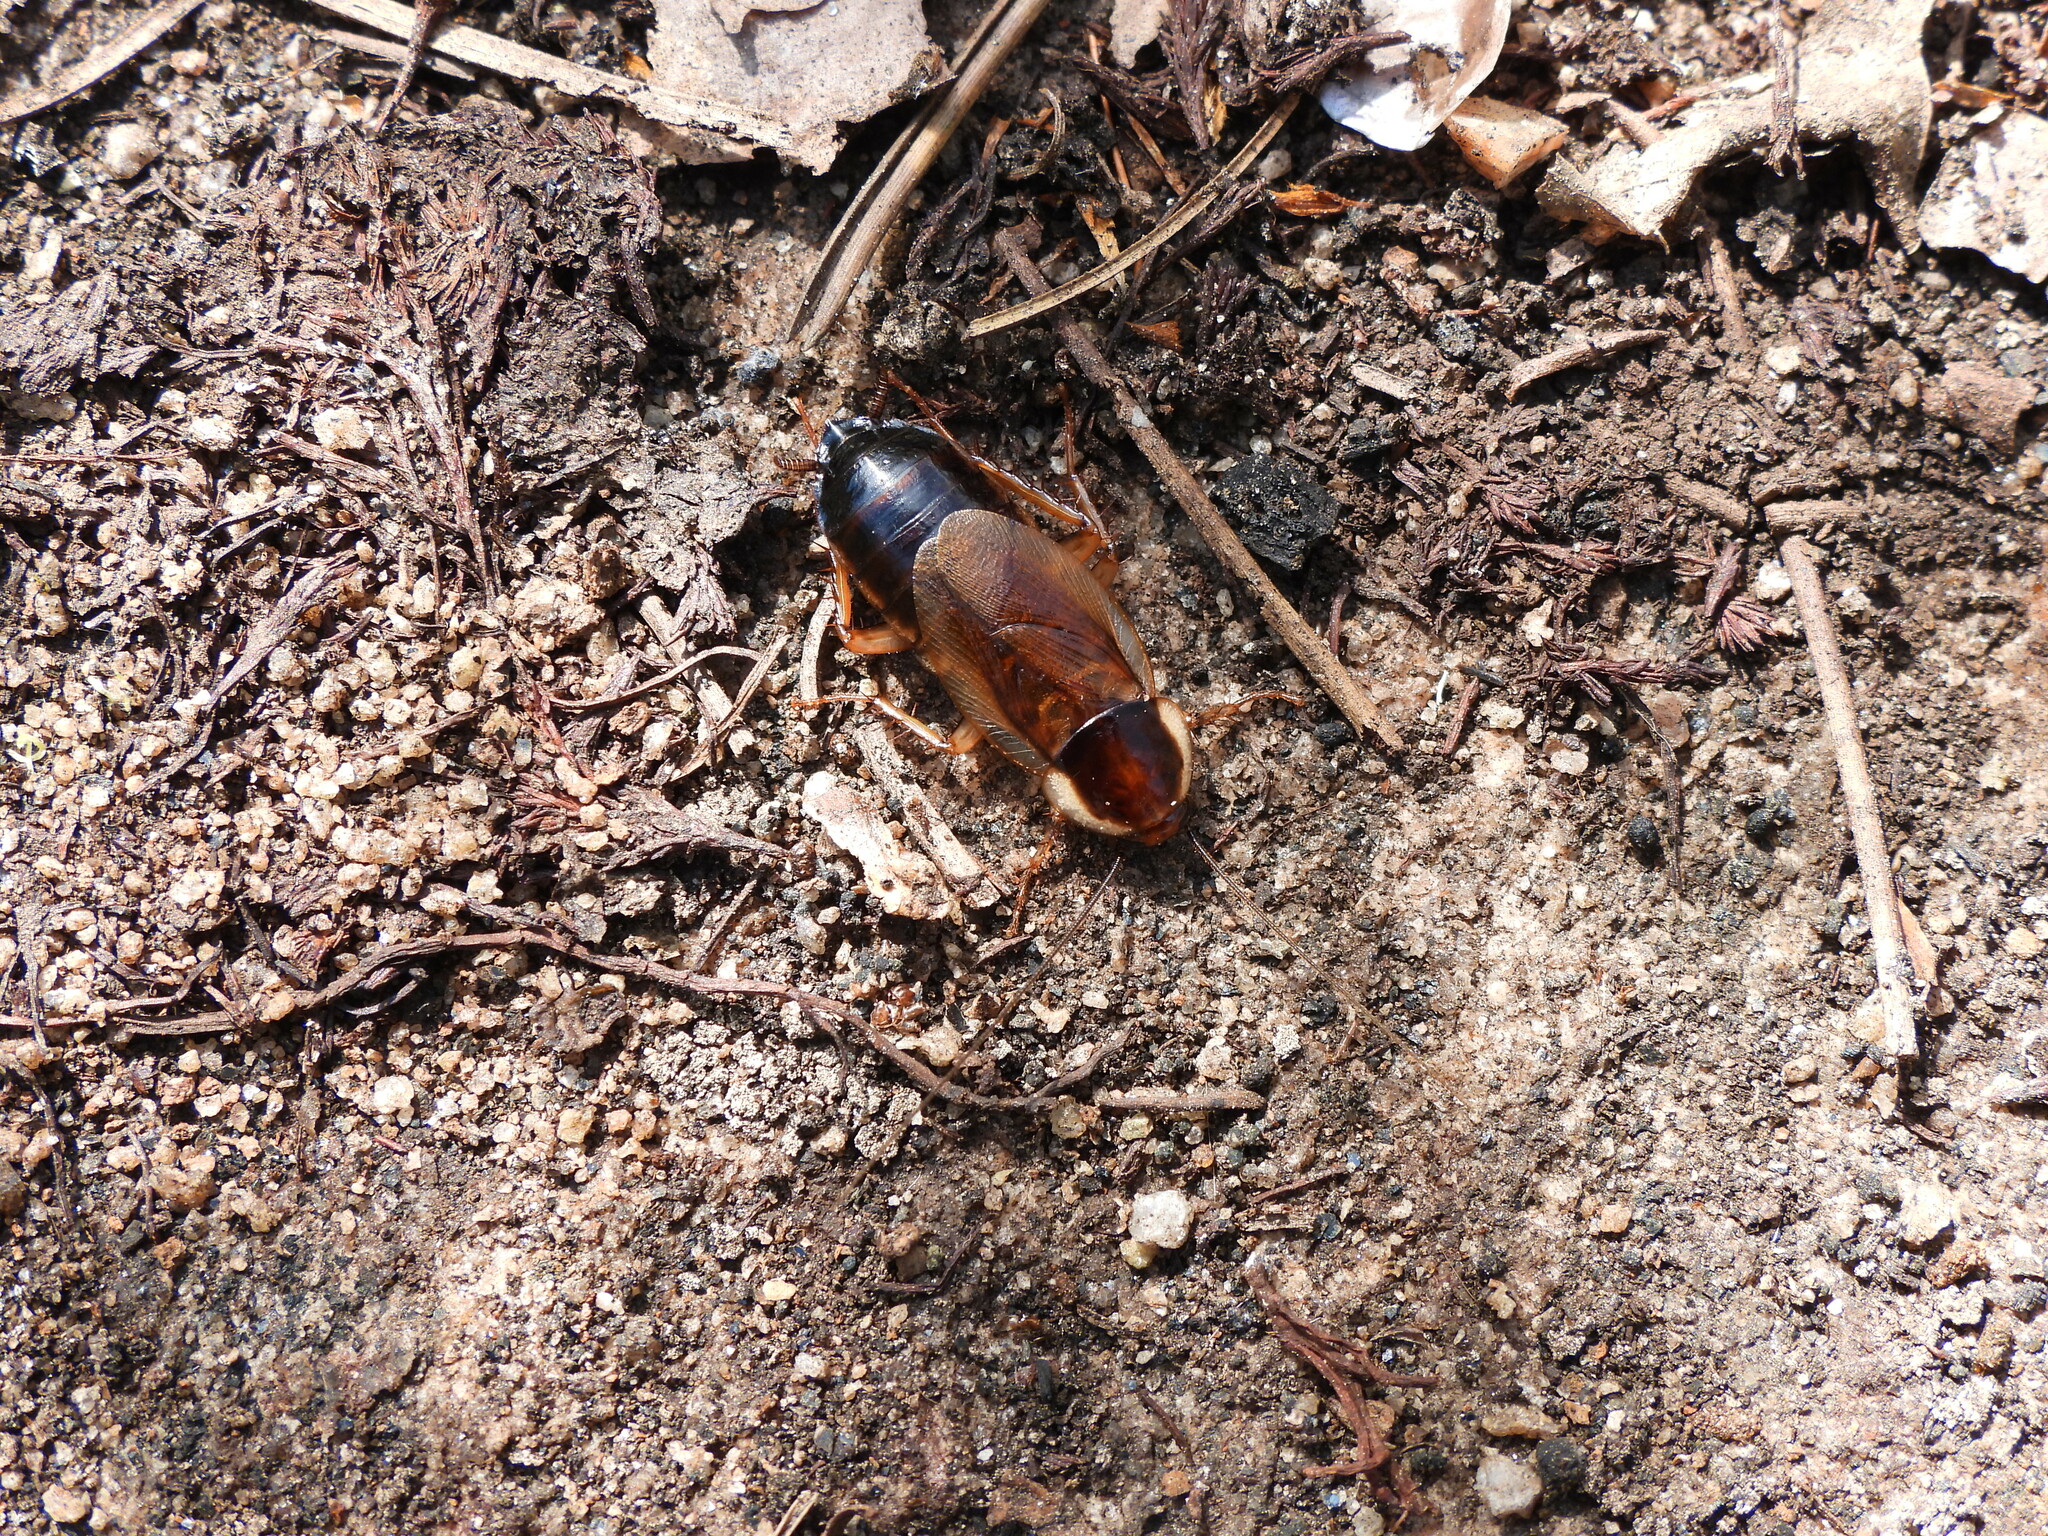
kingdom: Animalia
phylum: Arthropoda
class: Insecta
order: Blattodea
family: Ectobiidae
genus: Parcoblatta
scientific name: Parcoblatta pennsylvanica
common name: Pennsylvanian wood cockroach
